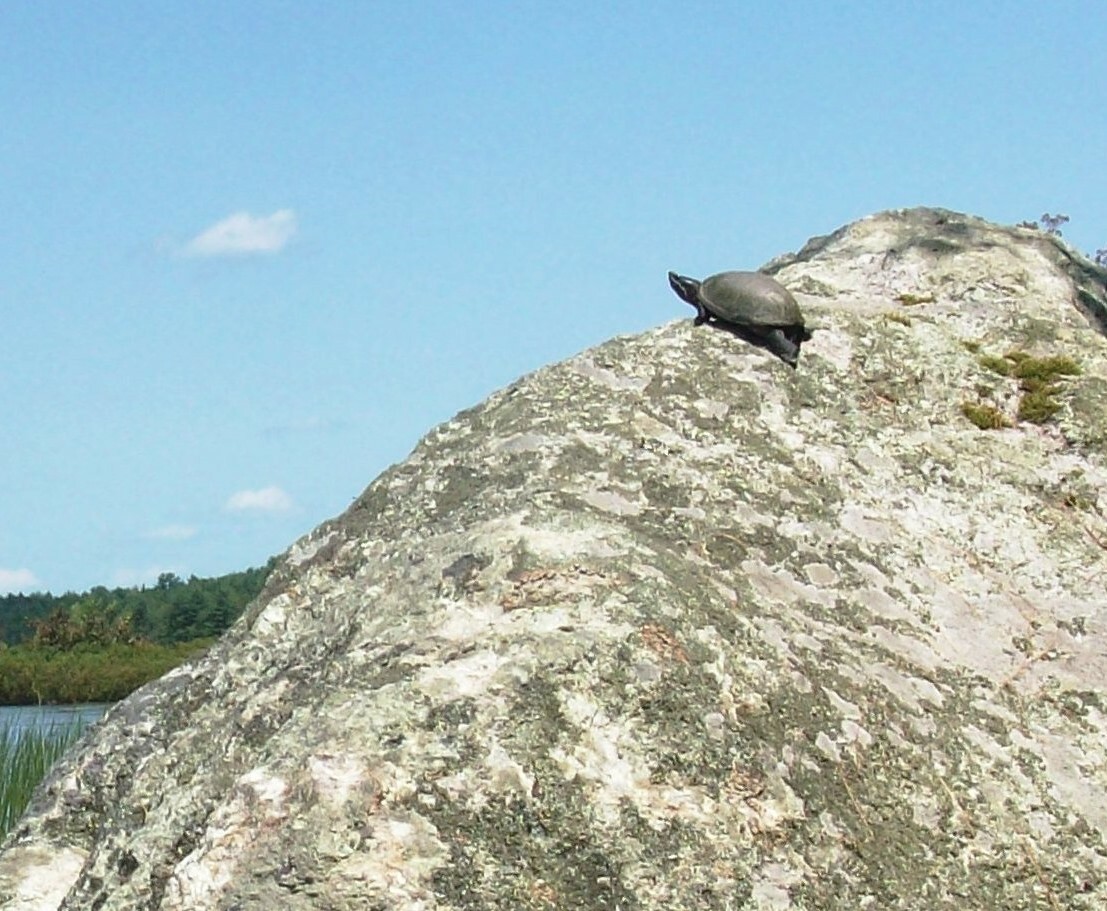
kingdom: Animalia
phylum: Chordata
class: Testudines
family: Kinosternidae
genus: Sternotherus
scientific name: Sternotherus odoratus
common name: Common musk turtle
